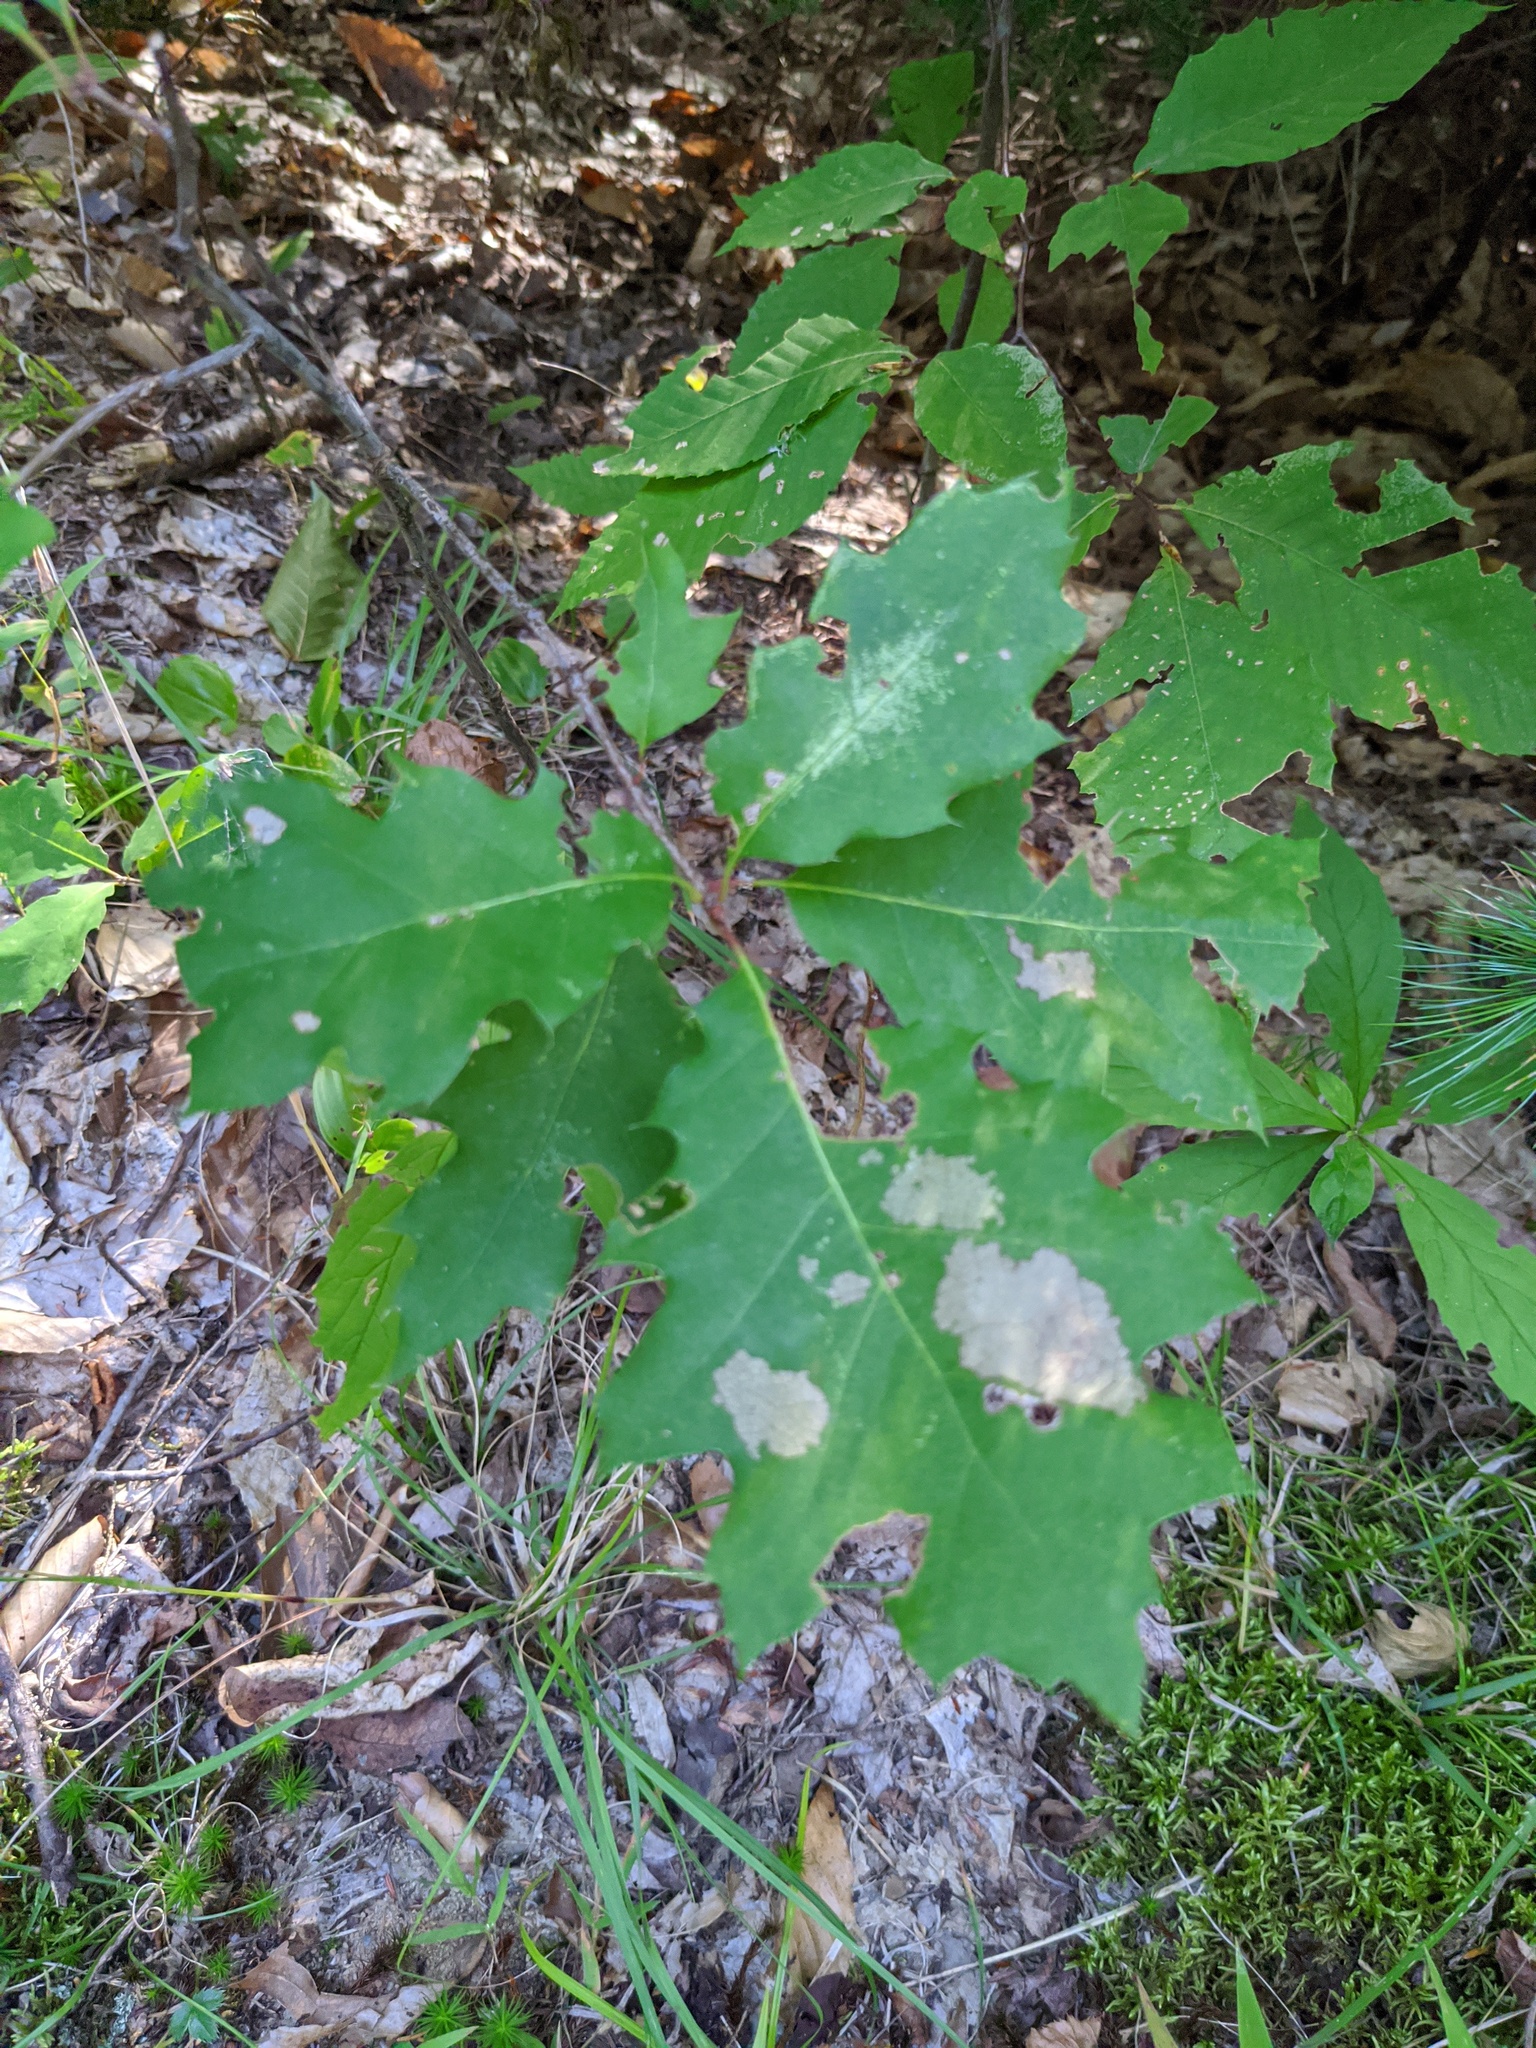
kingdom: Plantae
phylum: Tracheophyta
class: Magnoliopsida
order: Fagales
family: Fagaceae
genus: Quercus
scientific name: Quercus rubra
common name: Red oak
